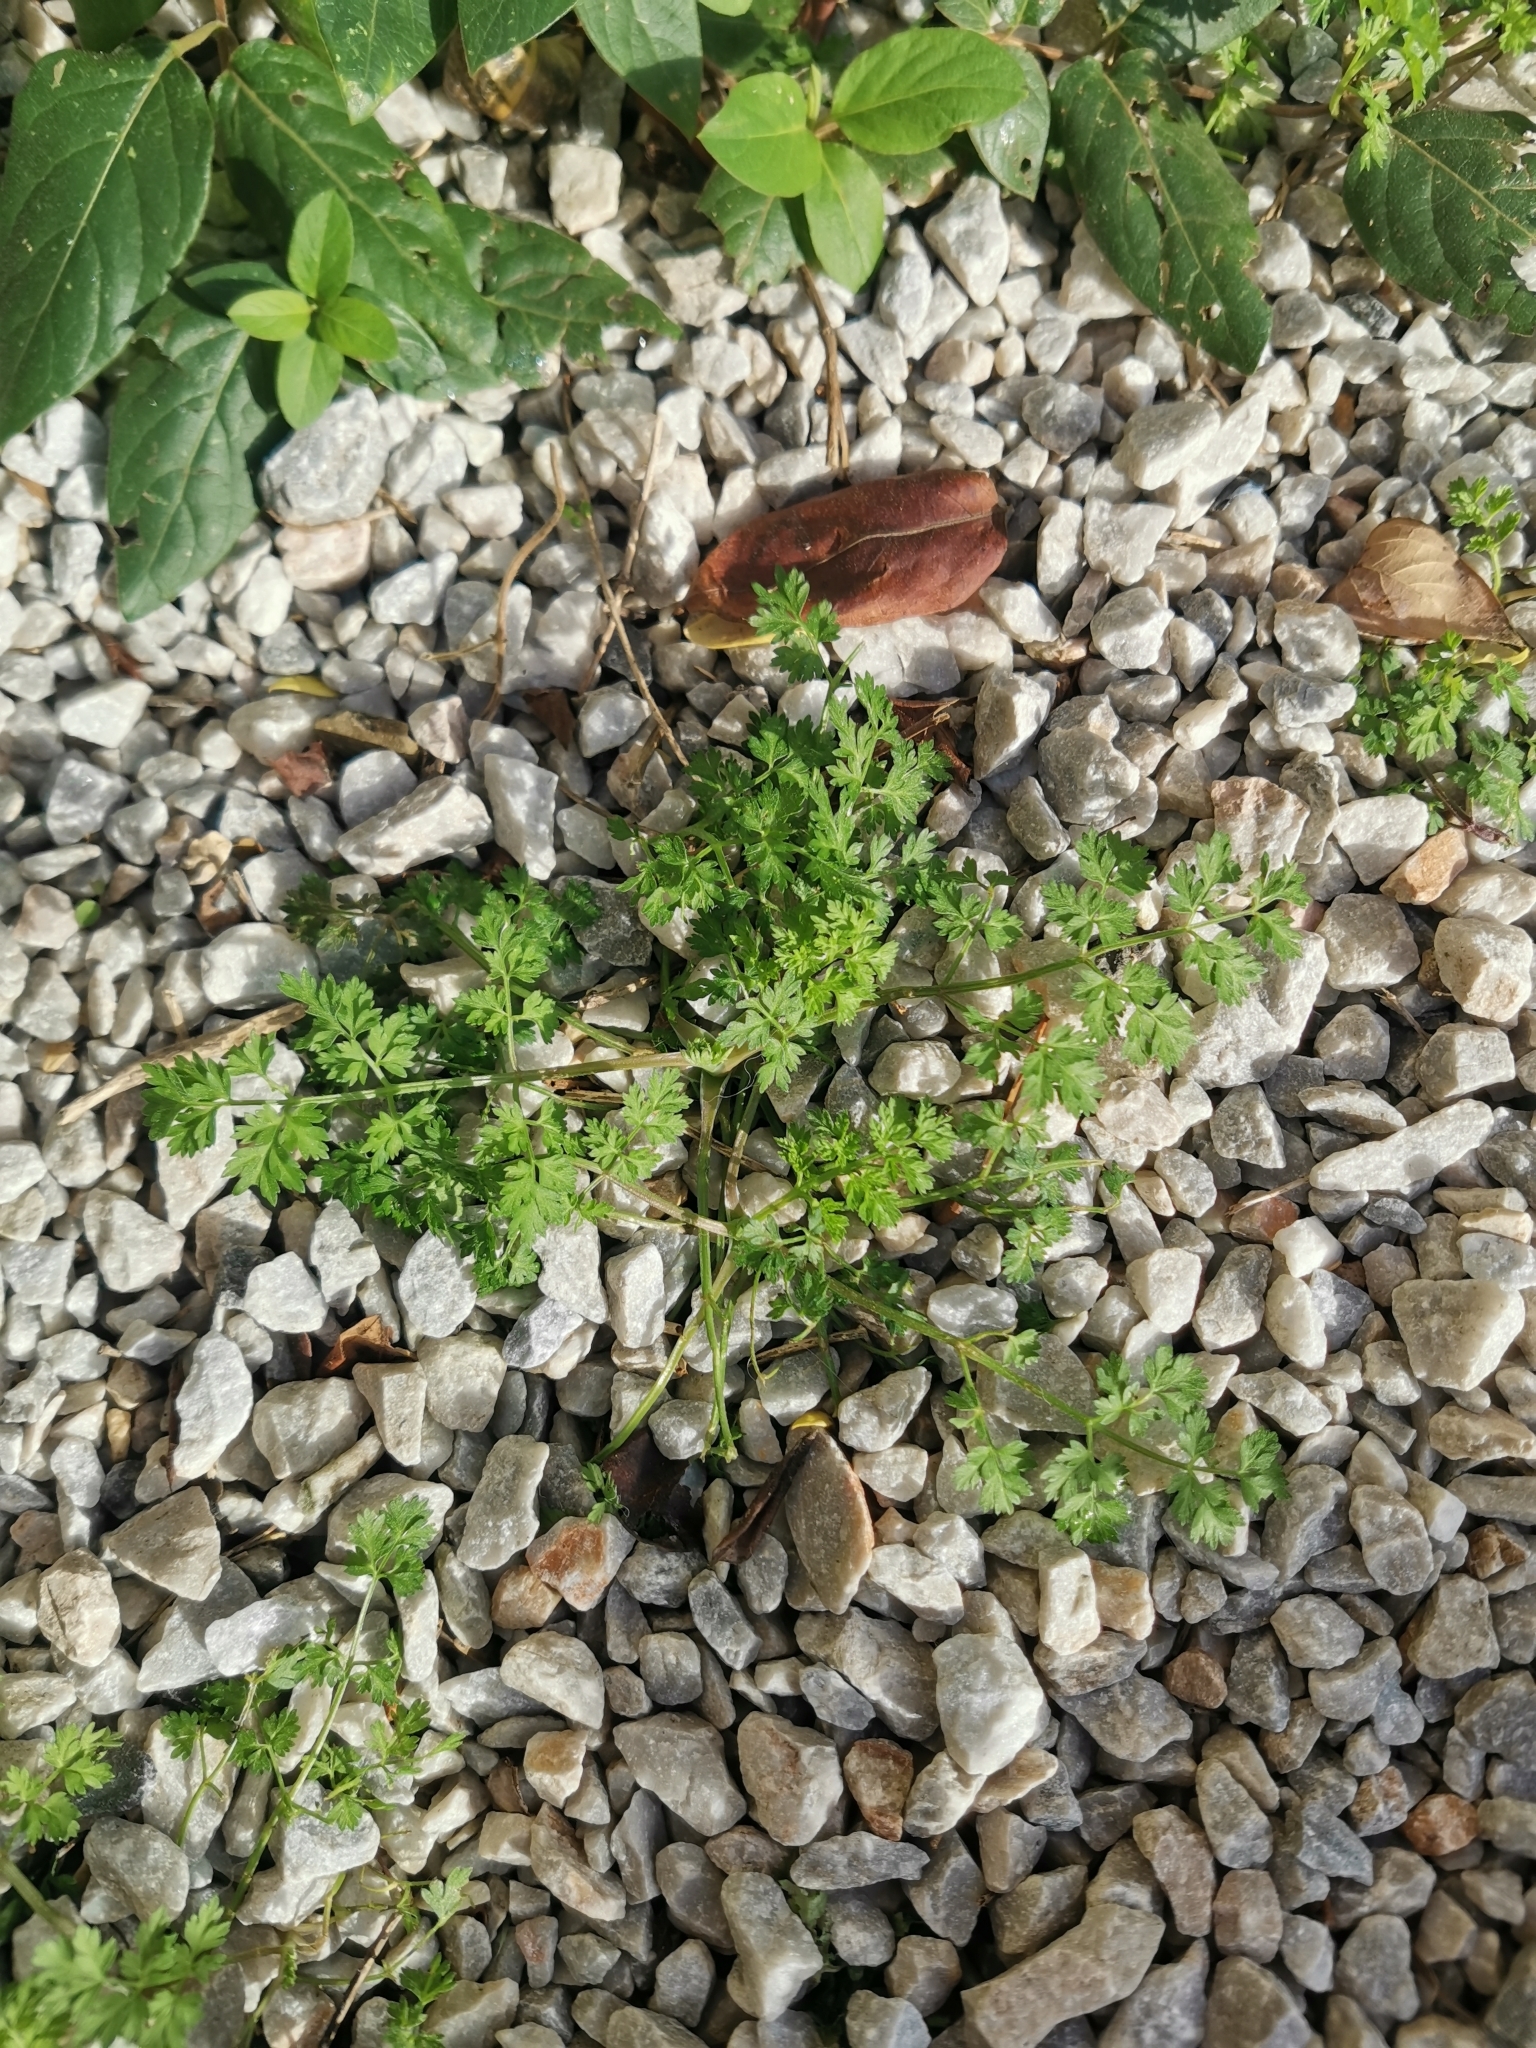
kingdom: Plantae
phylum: Tracheophyta
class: Magnoliopsida
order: Apiales
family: Apiaceae
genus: Daucus
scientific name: Daucus carota
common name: Wild carrot
